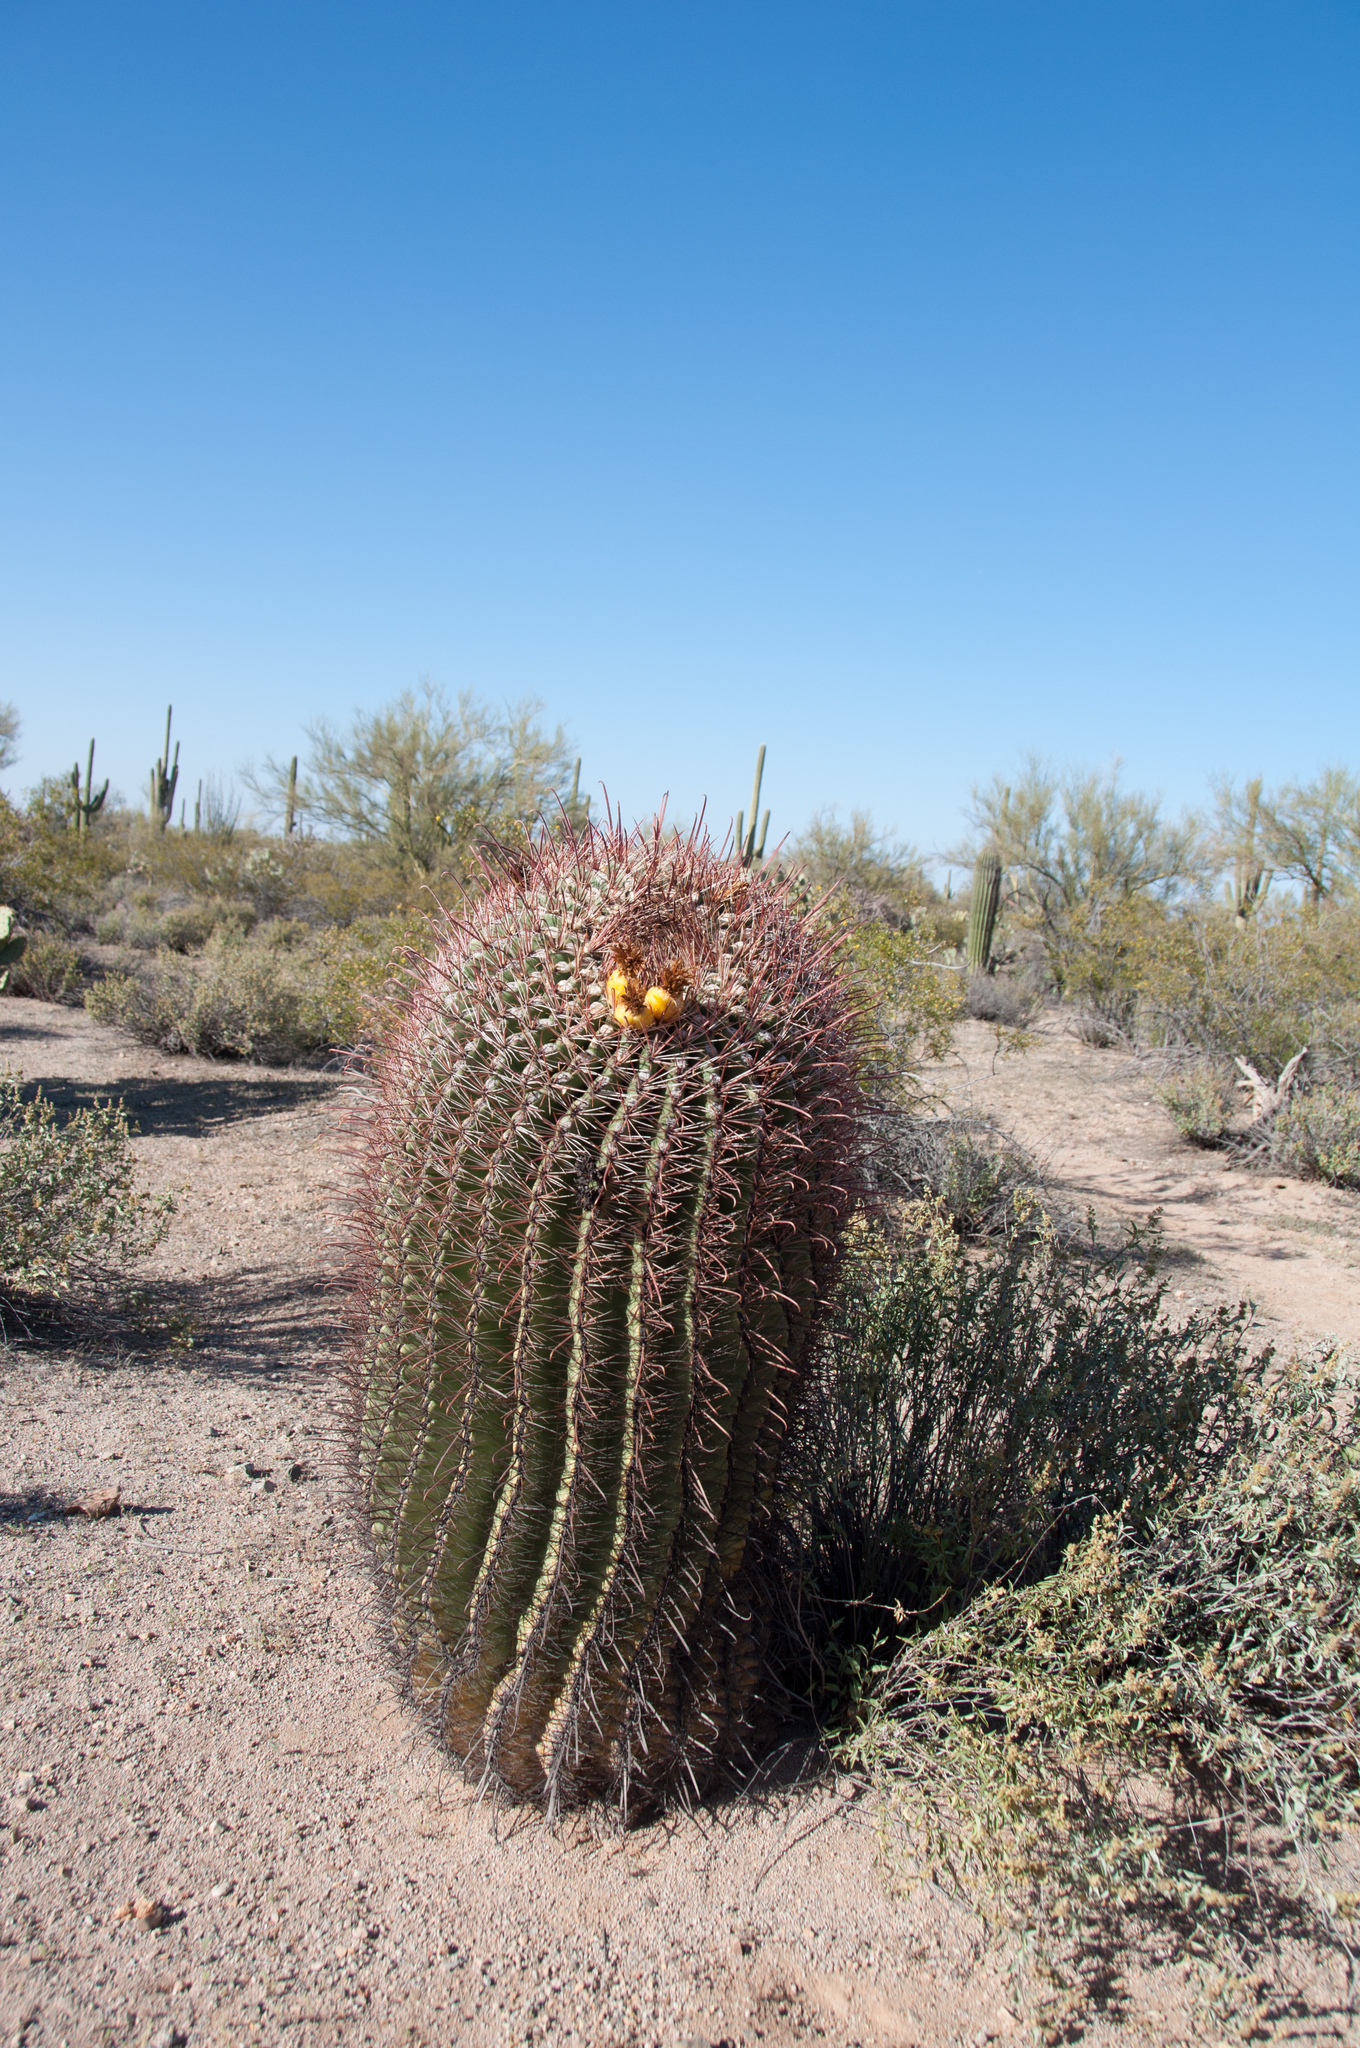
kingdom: Plantae
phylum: Tracheophyta
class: Magnoliopsida
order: Caryophyllales
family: Cactaceae
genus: Ferocactus
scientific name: Ferocactus wislizeni
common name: Candy barrel cactus
